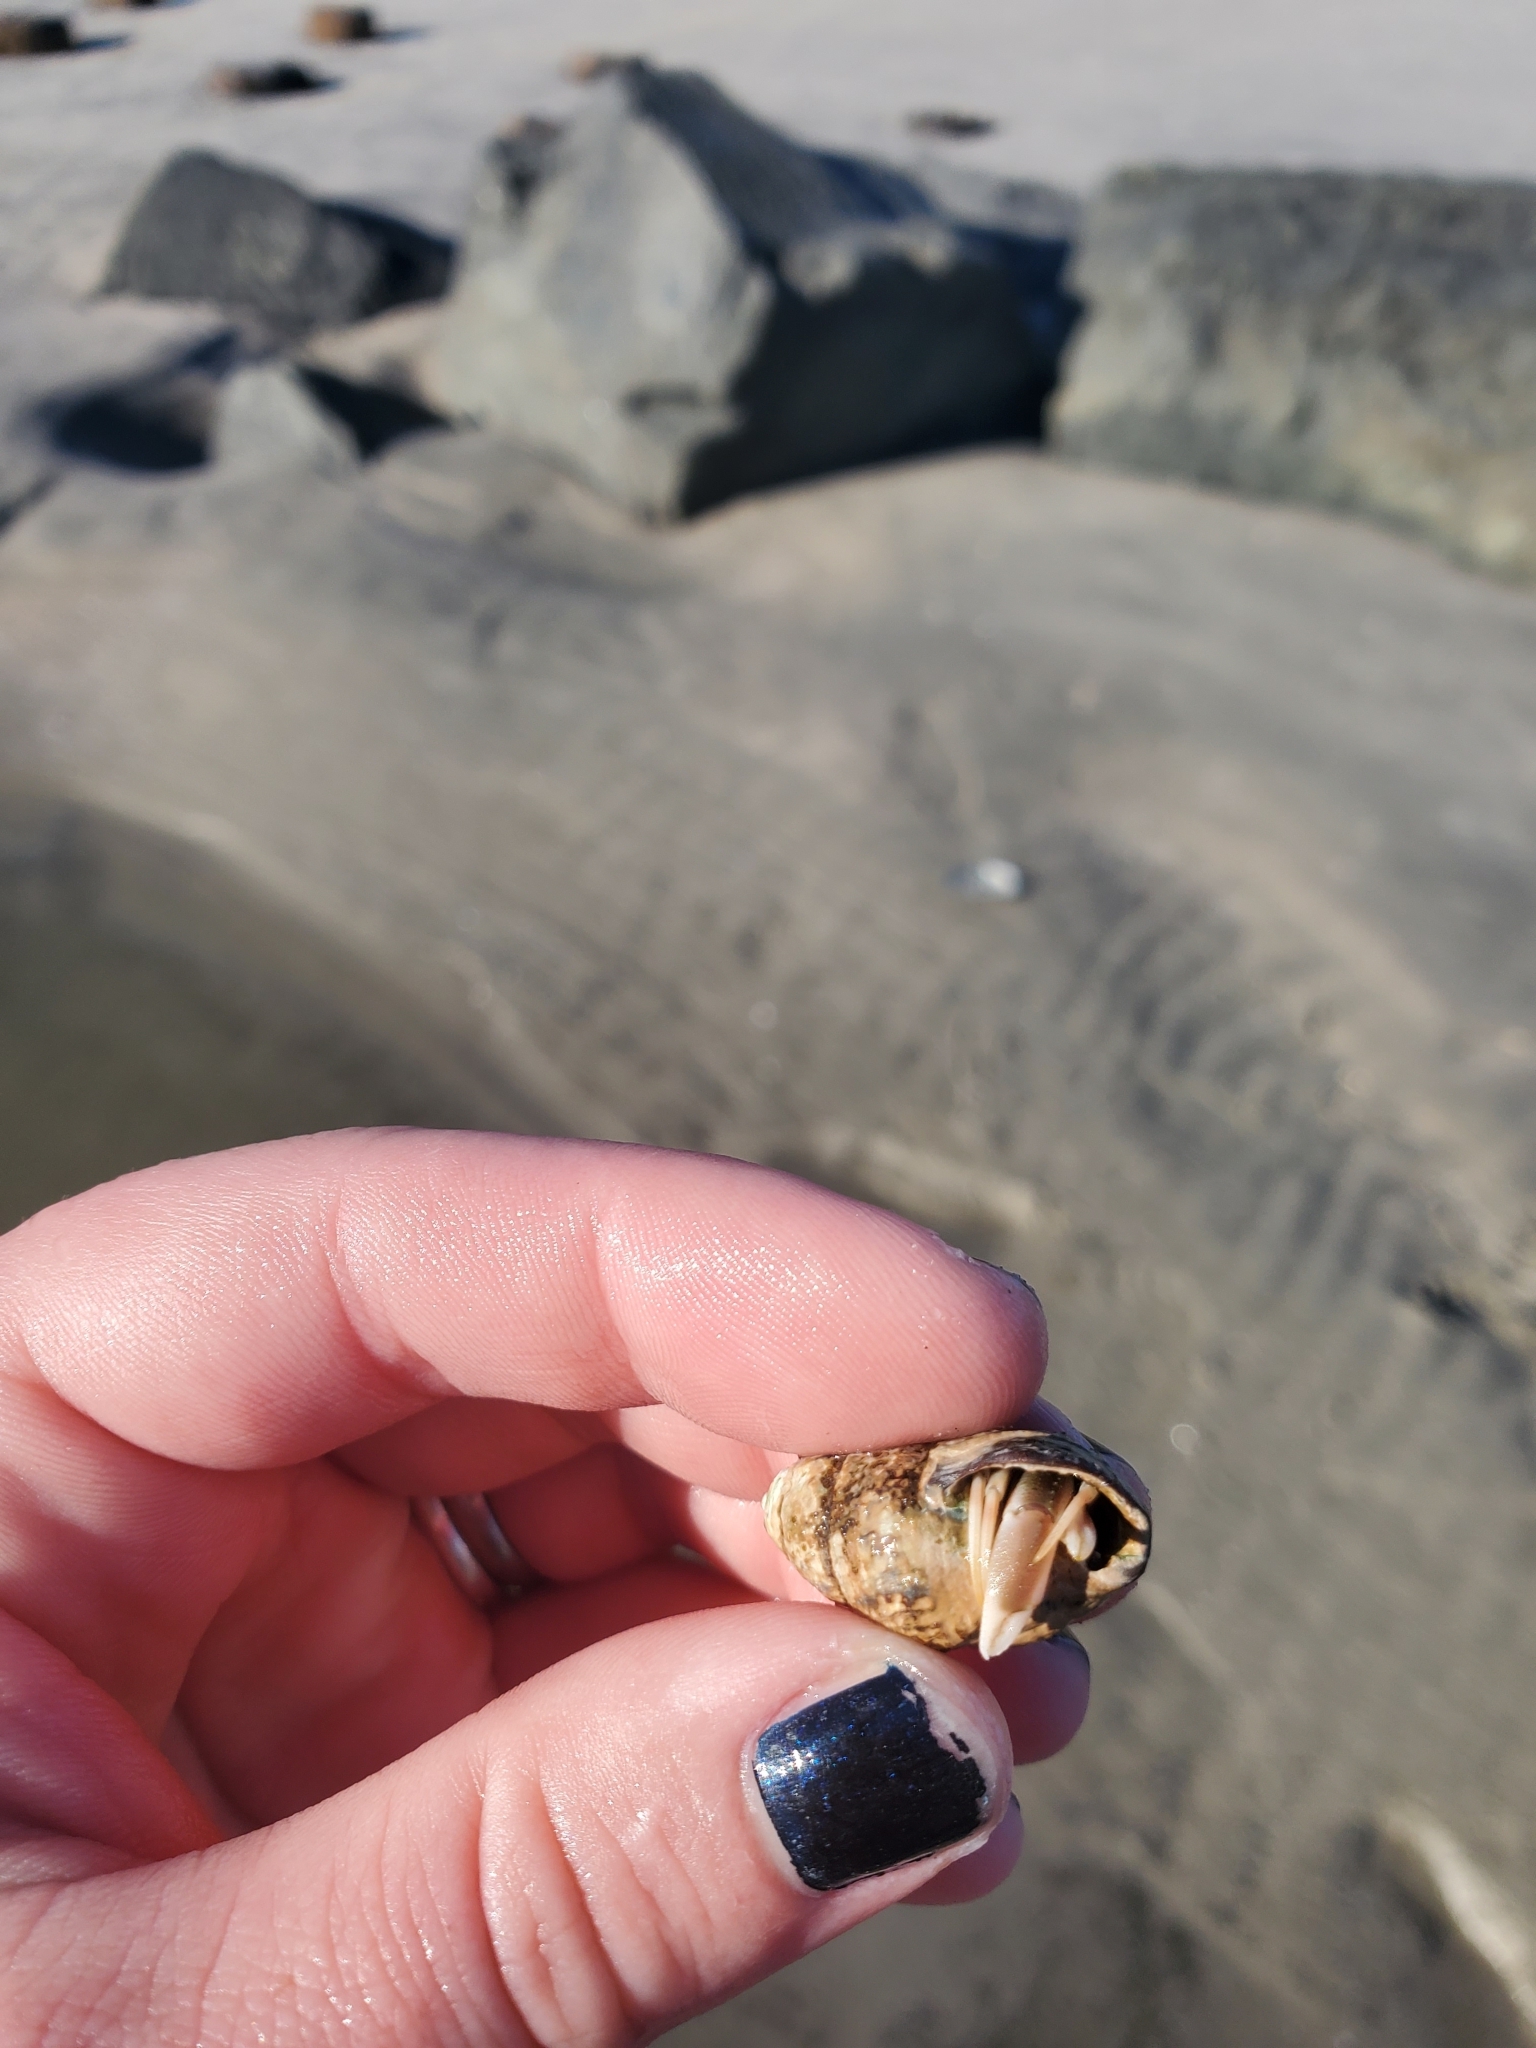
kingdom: Animalia
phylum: Mollusca
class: Gastropoda
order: Neogastropoda
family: Nassariidae
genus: Ilyanassa
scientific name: Ilyanassa obsoleta
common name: Eastern mudsnail
